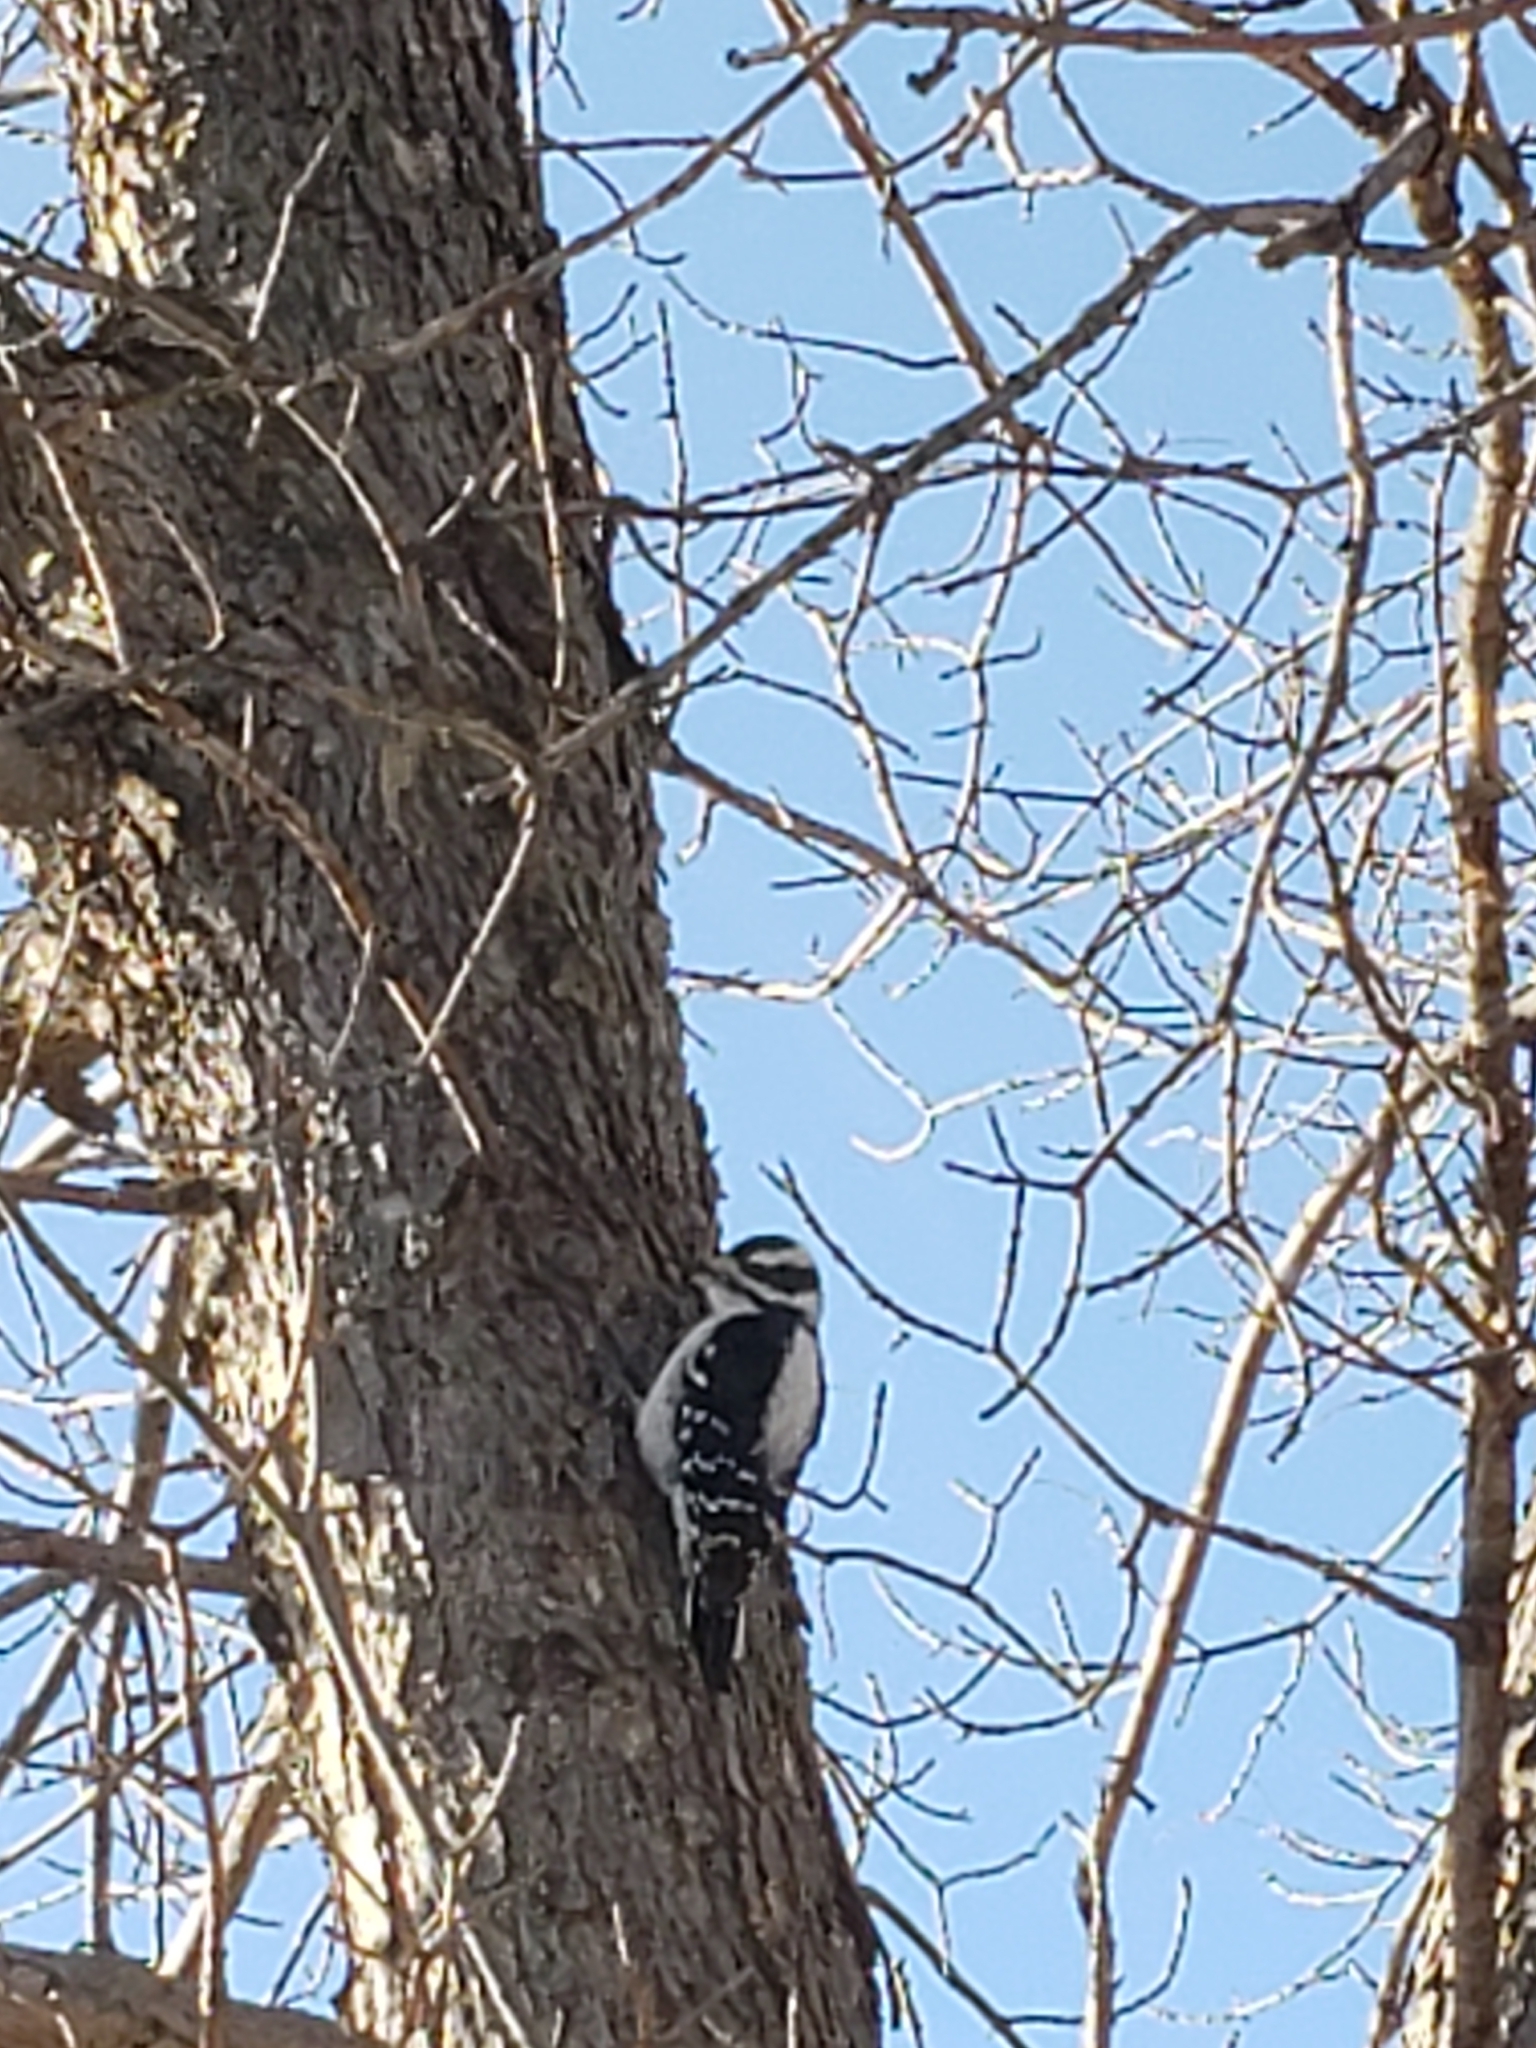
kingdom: Animalia
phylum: Chordata
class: Aves
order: Piciformes
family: Picidae
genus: Dryobates
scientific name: Dryobates pubescens
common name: Downy woodpecker
